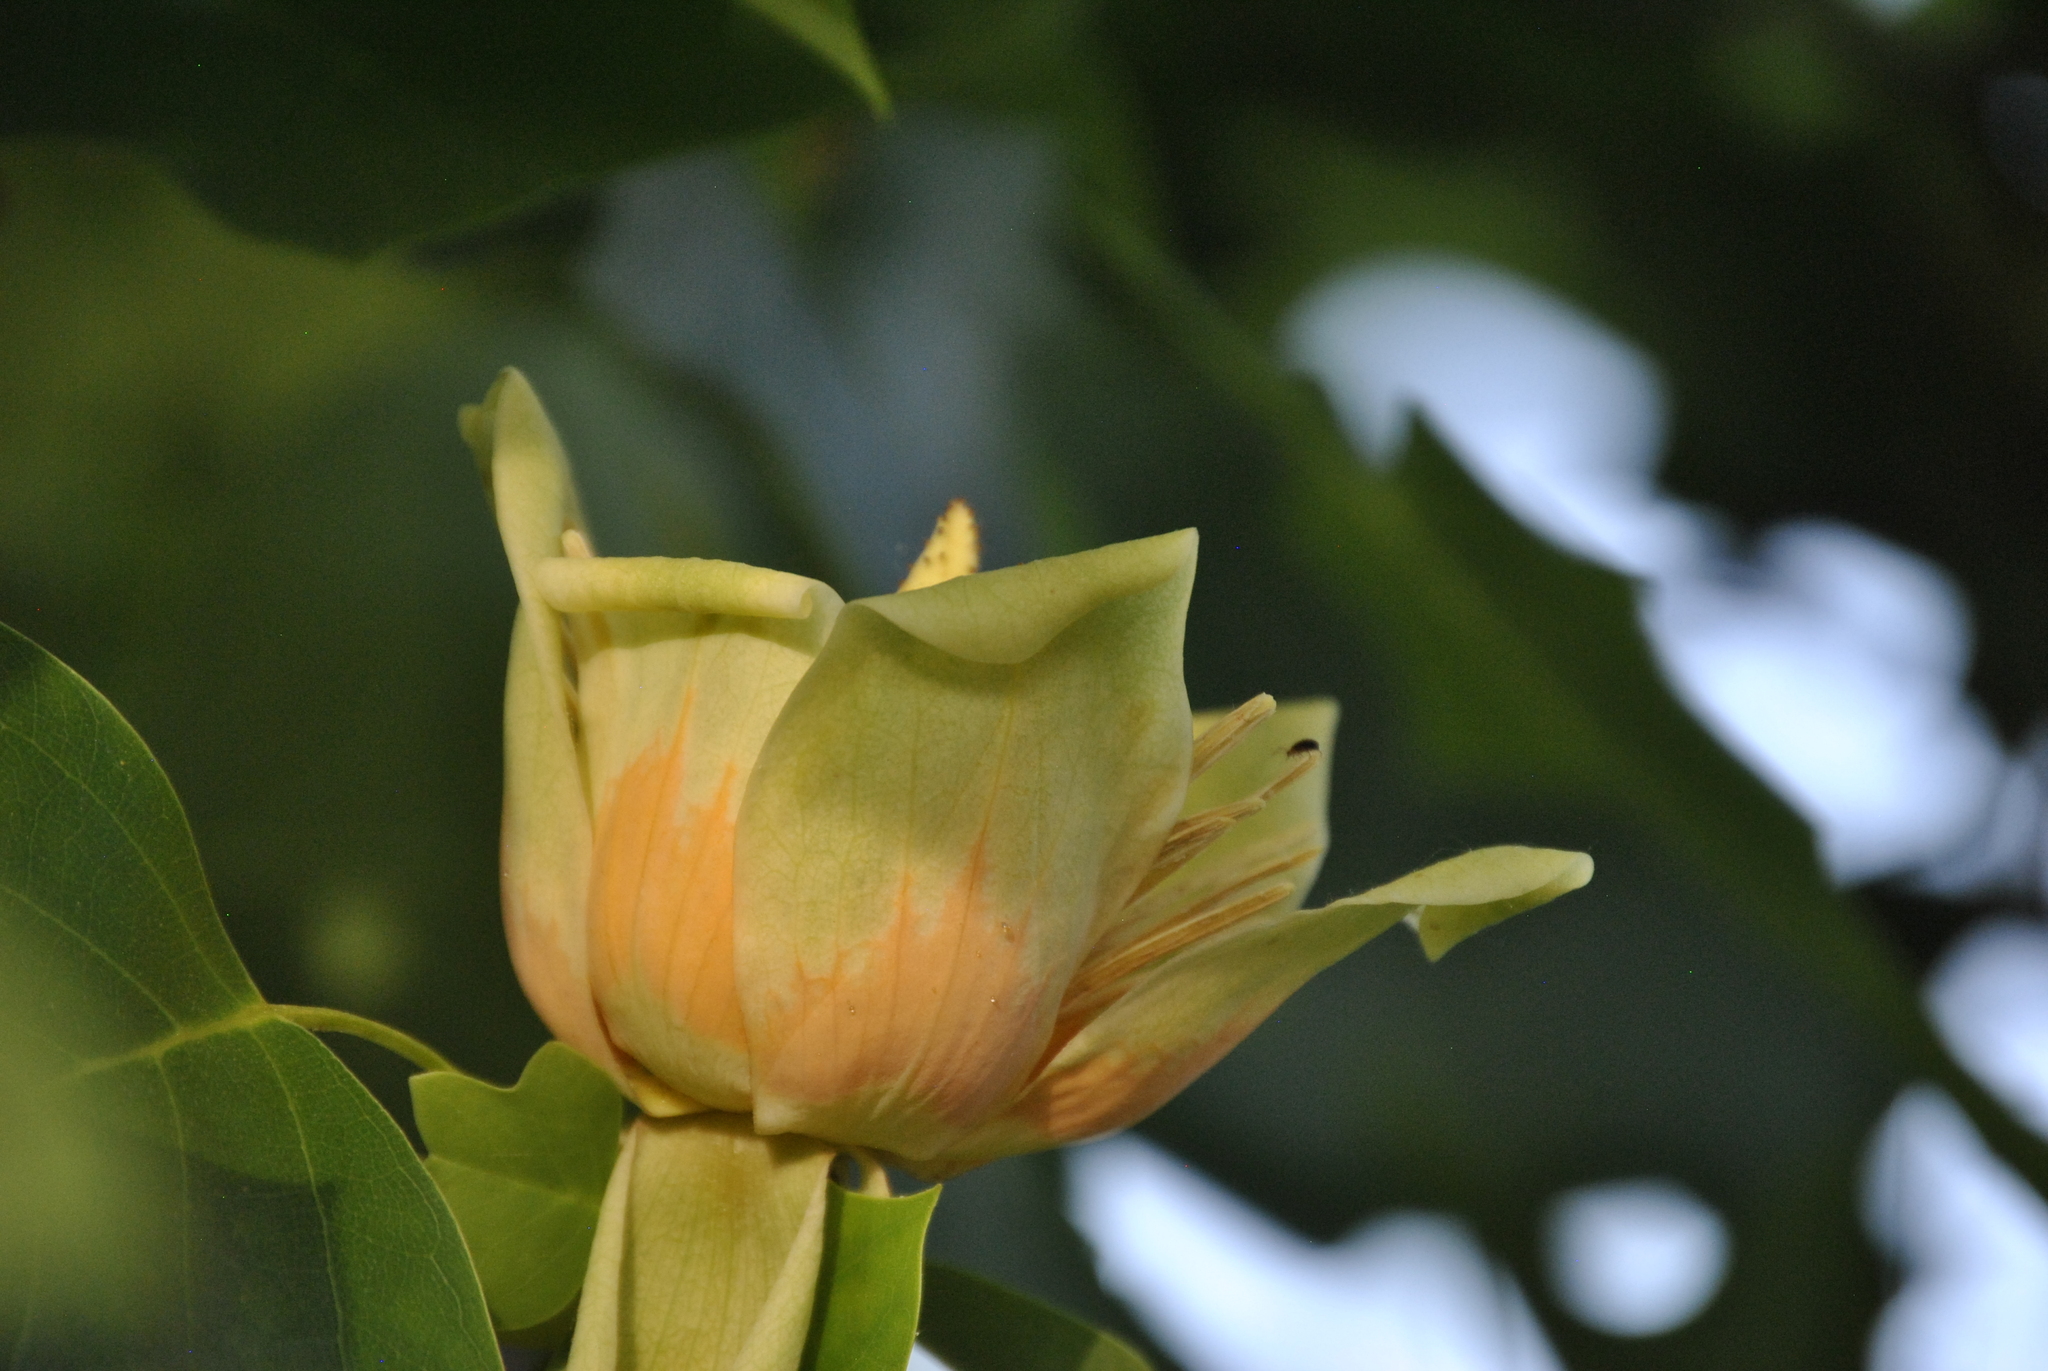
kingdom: Plantae
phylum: Tracheophyta
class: Magnoliopsida
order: Magnoliales
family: Magnoliaceae
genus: Liriodendron
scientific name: Liriodendron tulipifera
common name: Tulip tree
